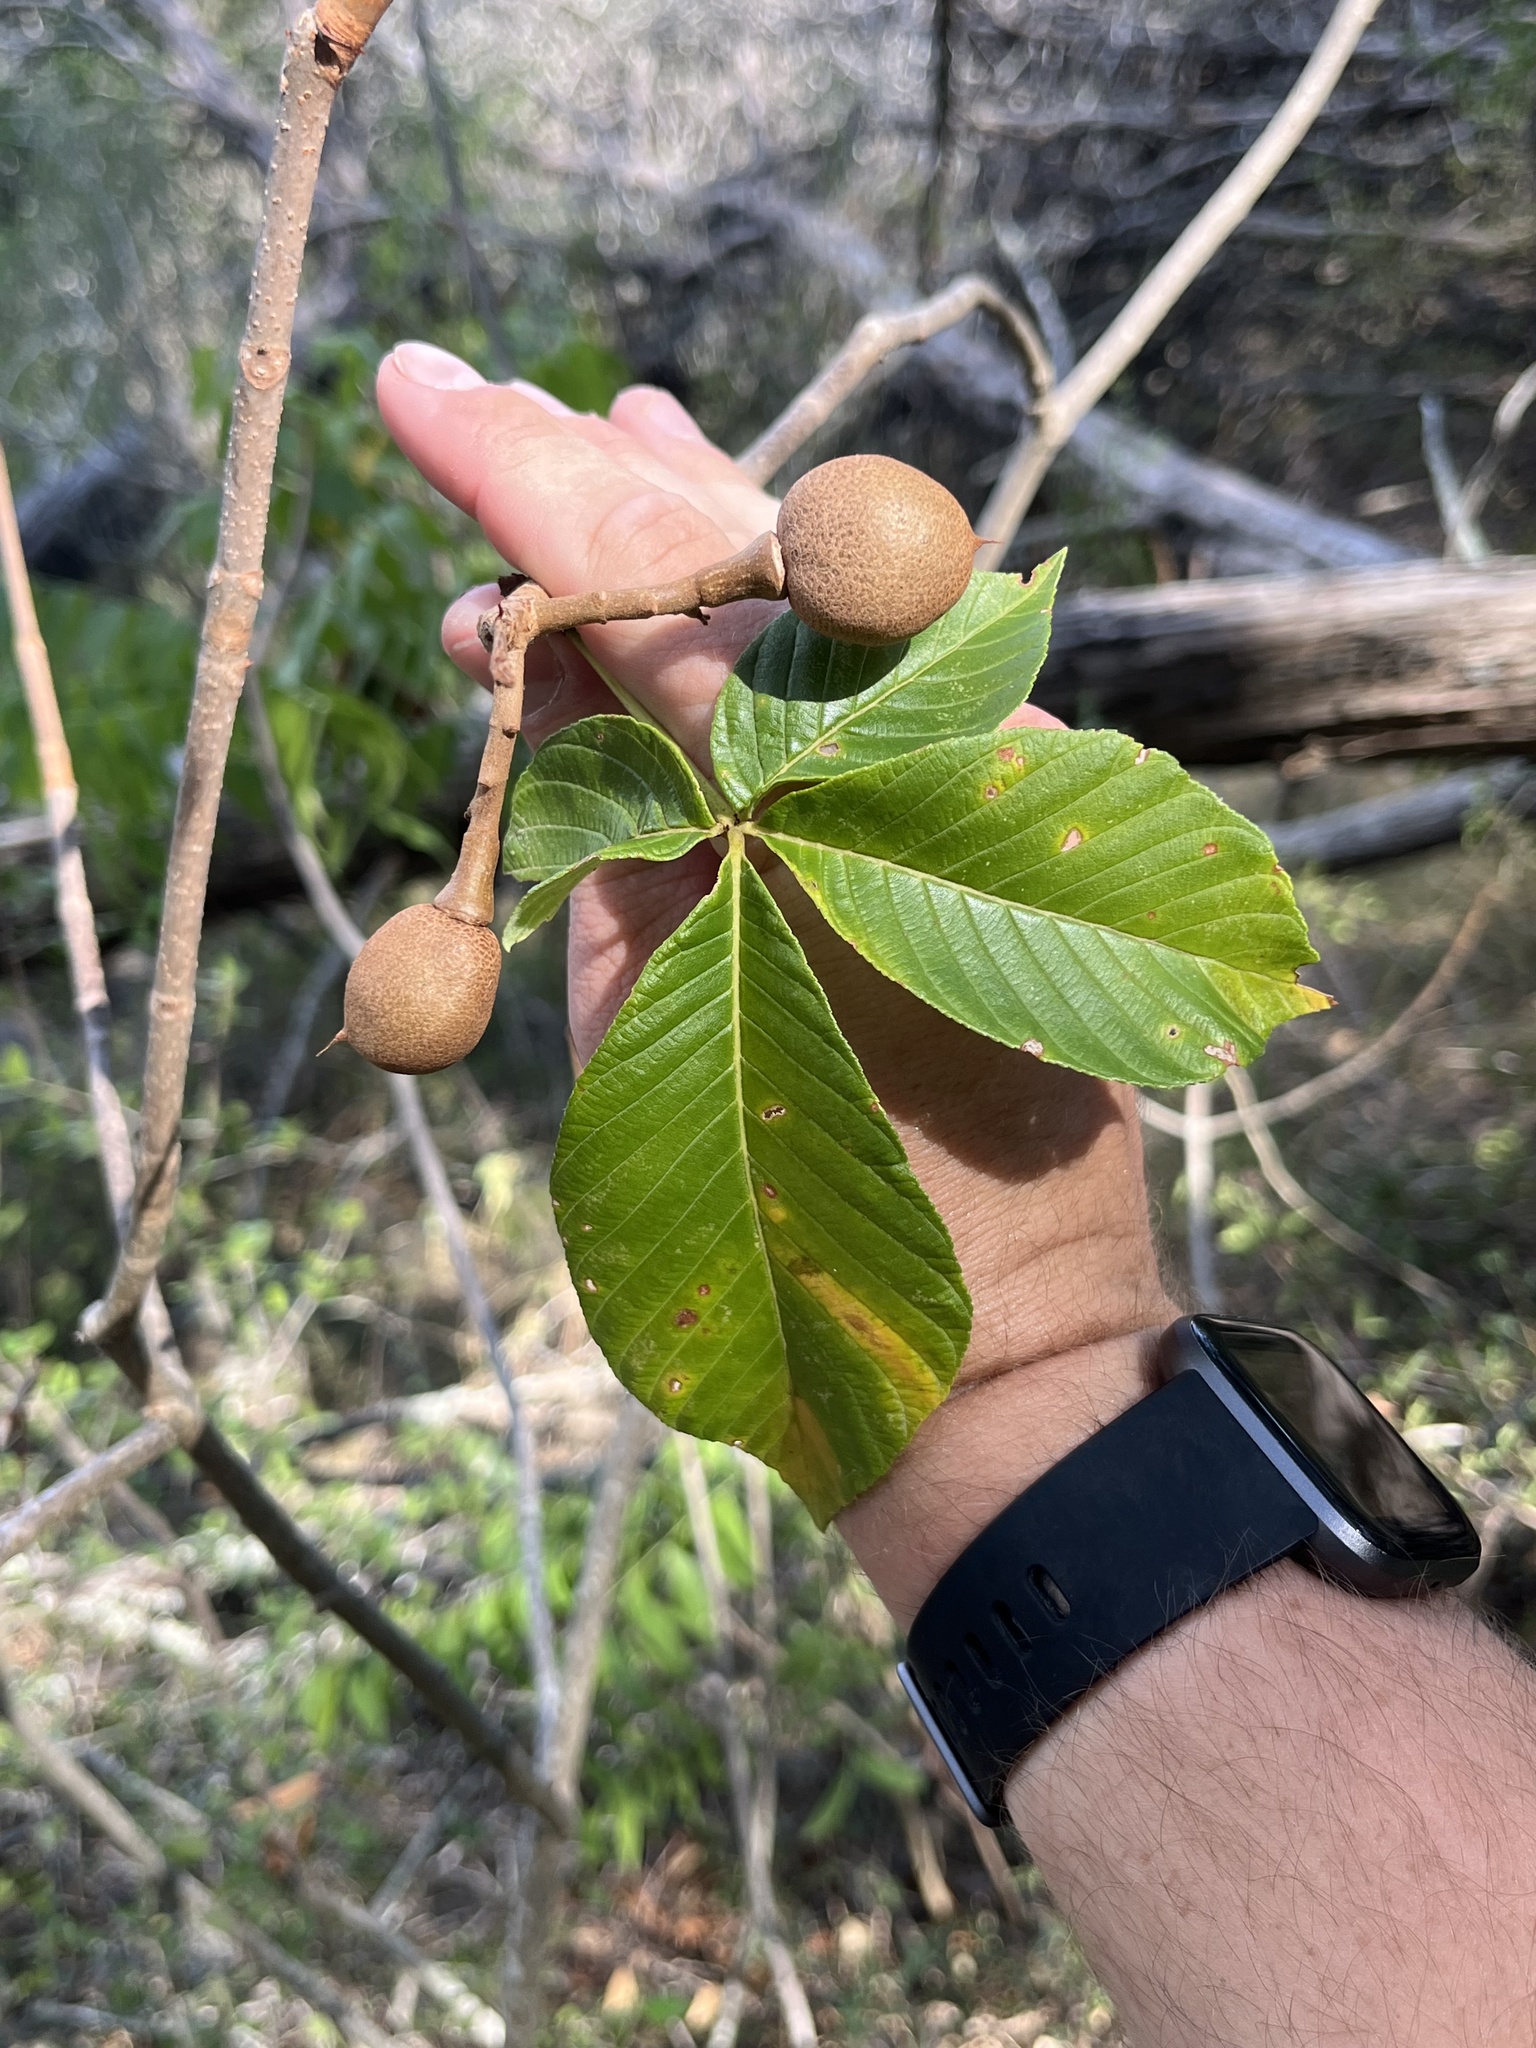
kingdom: Plantae
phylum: Tracheophyta
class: Magnoliopsida
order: Sapindales
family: Sapindaceae
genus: Aesculus
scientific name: Aesculus pavia
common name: Red buckeye
